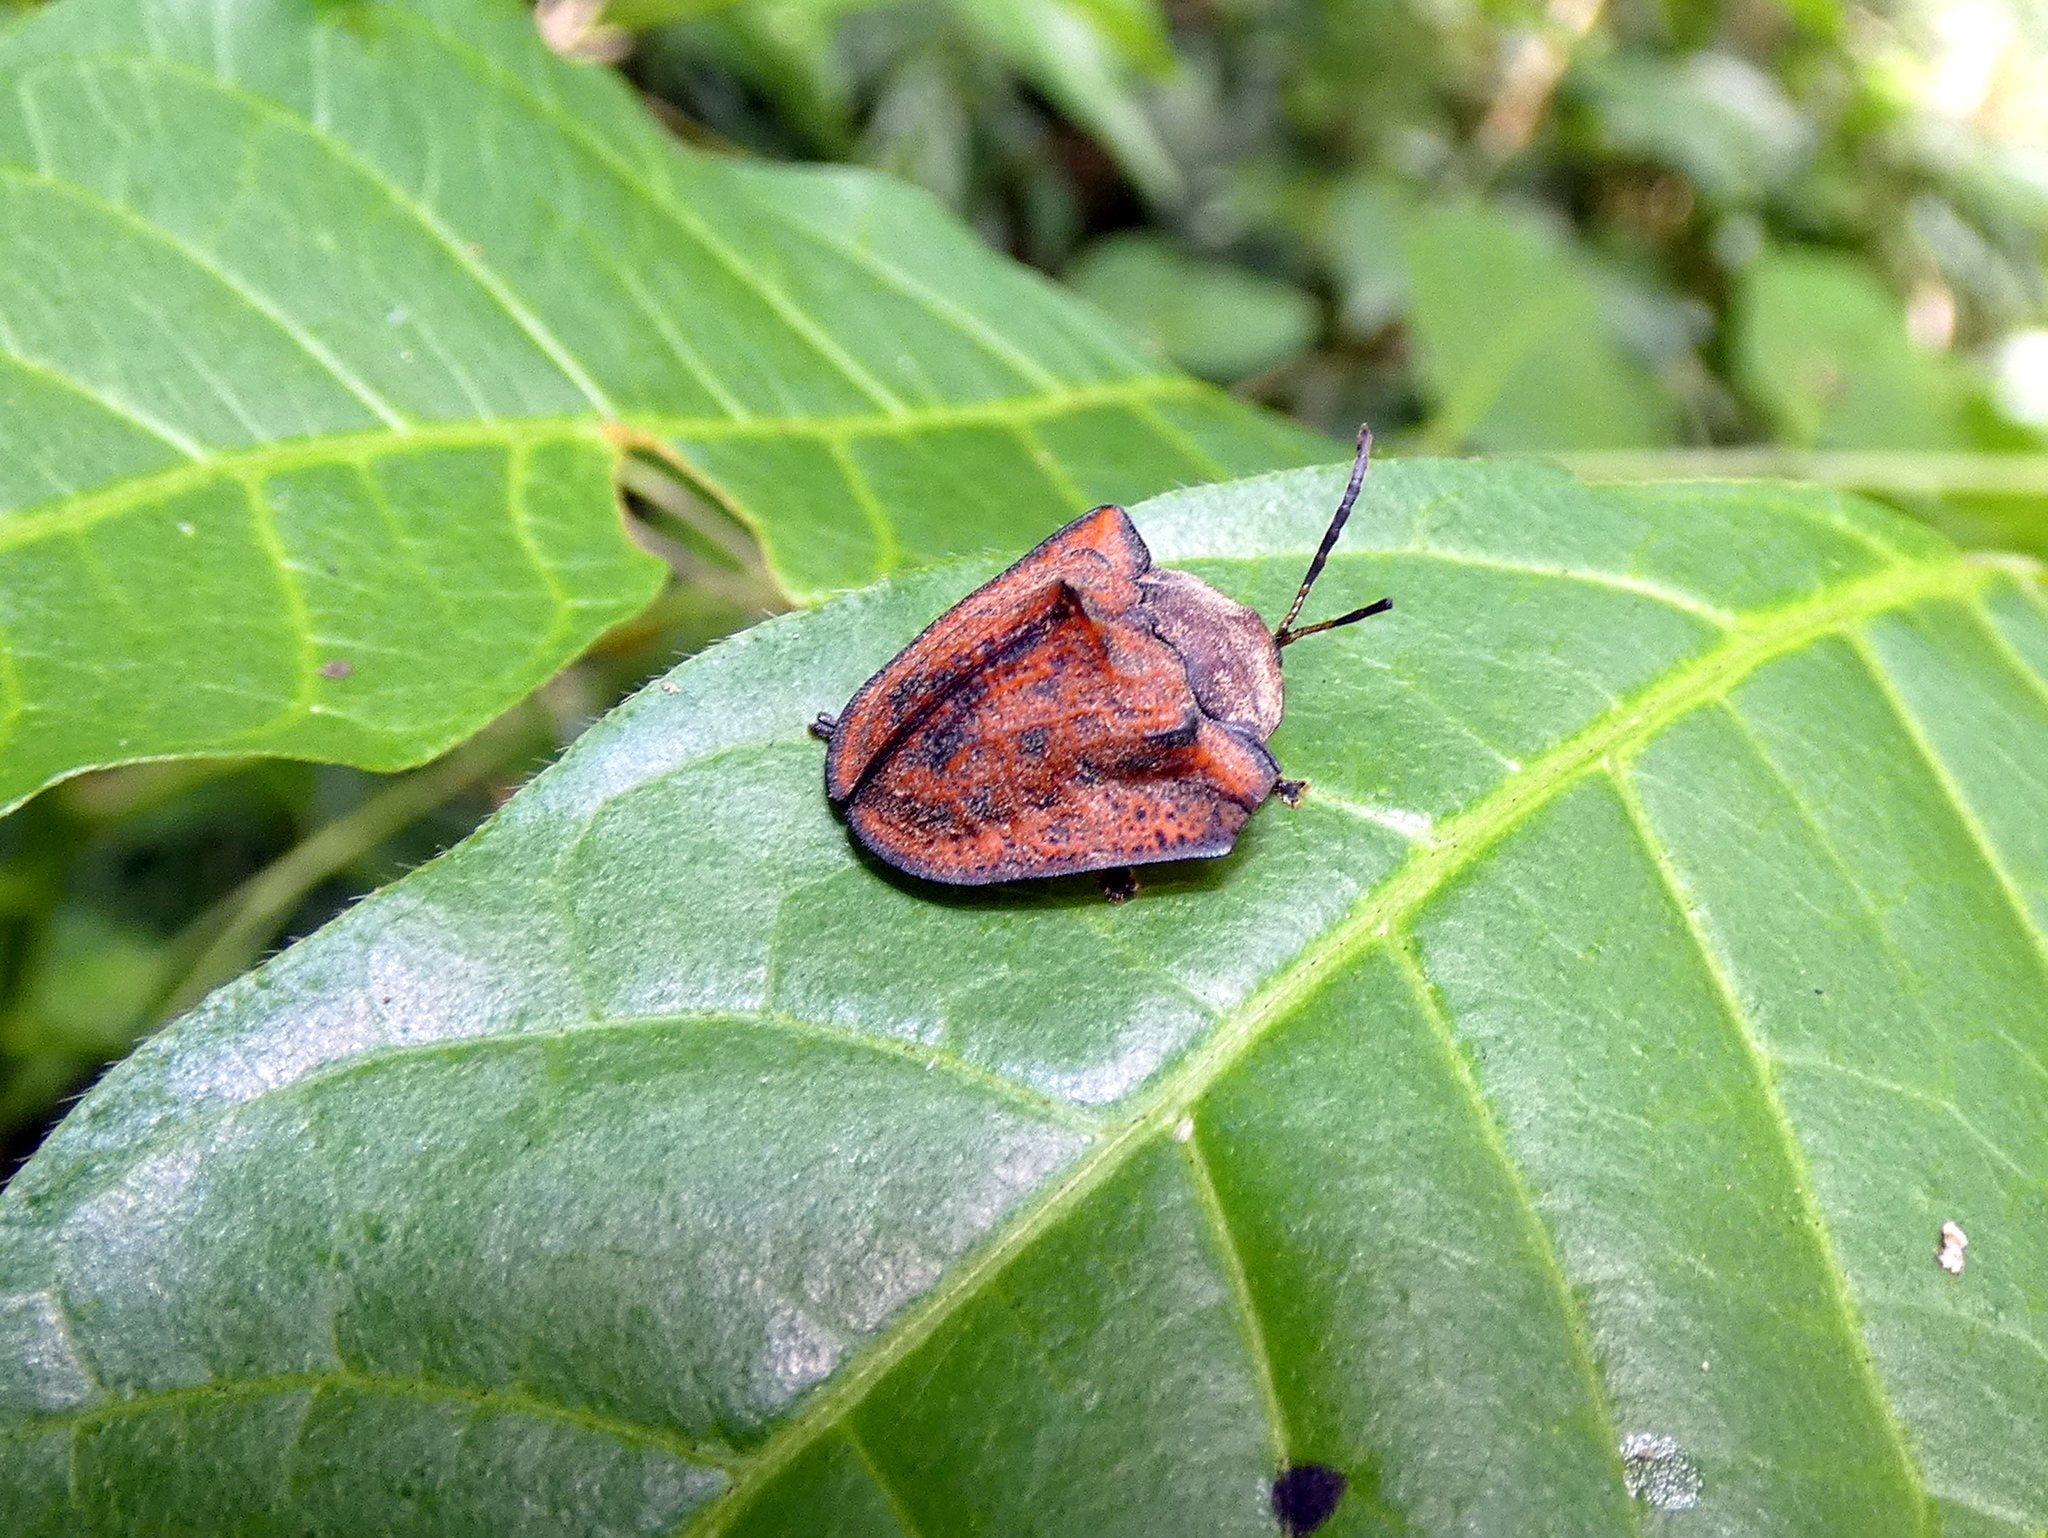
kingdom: Animalia
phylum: Arthropoda
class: Insecta
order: Coleoptera
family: Chrysomelidae
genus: Dorynota
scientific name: Dorynota insidiosa
